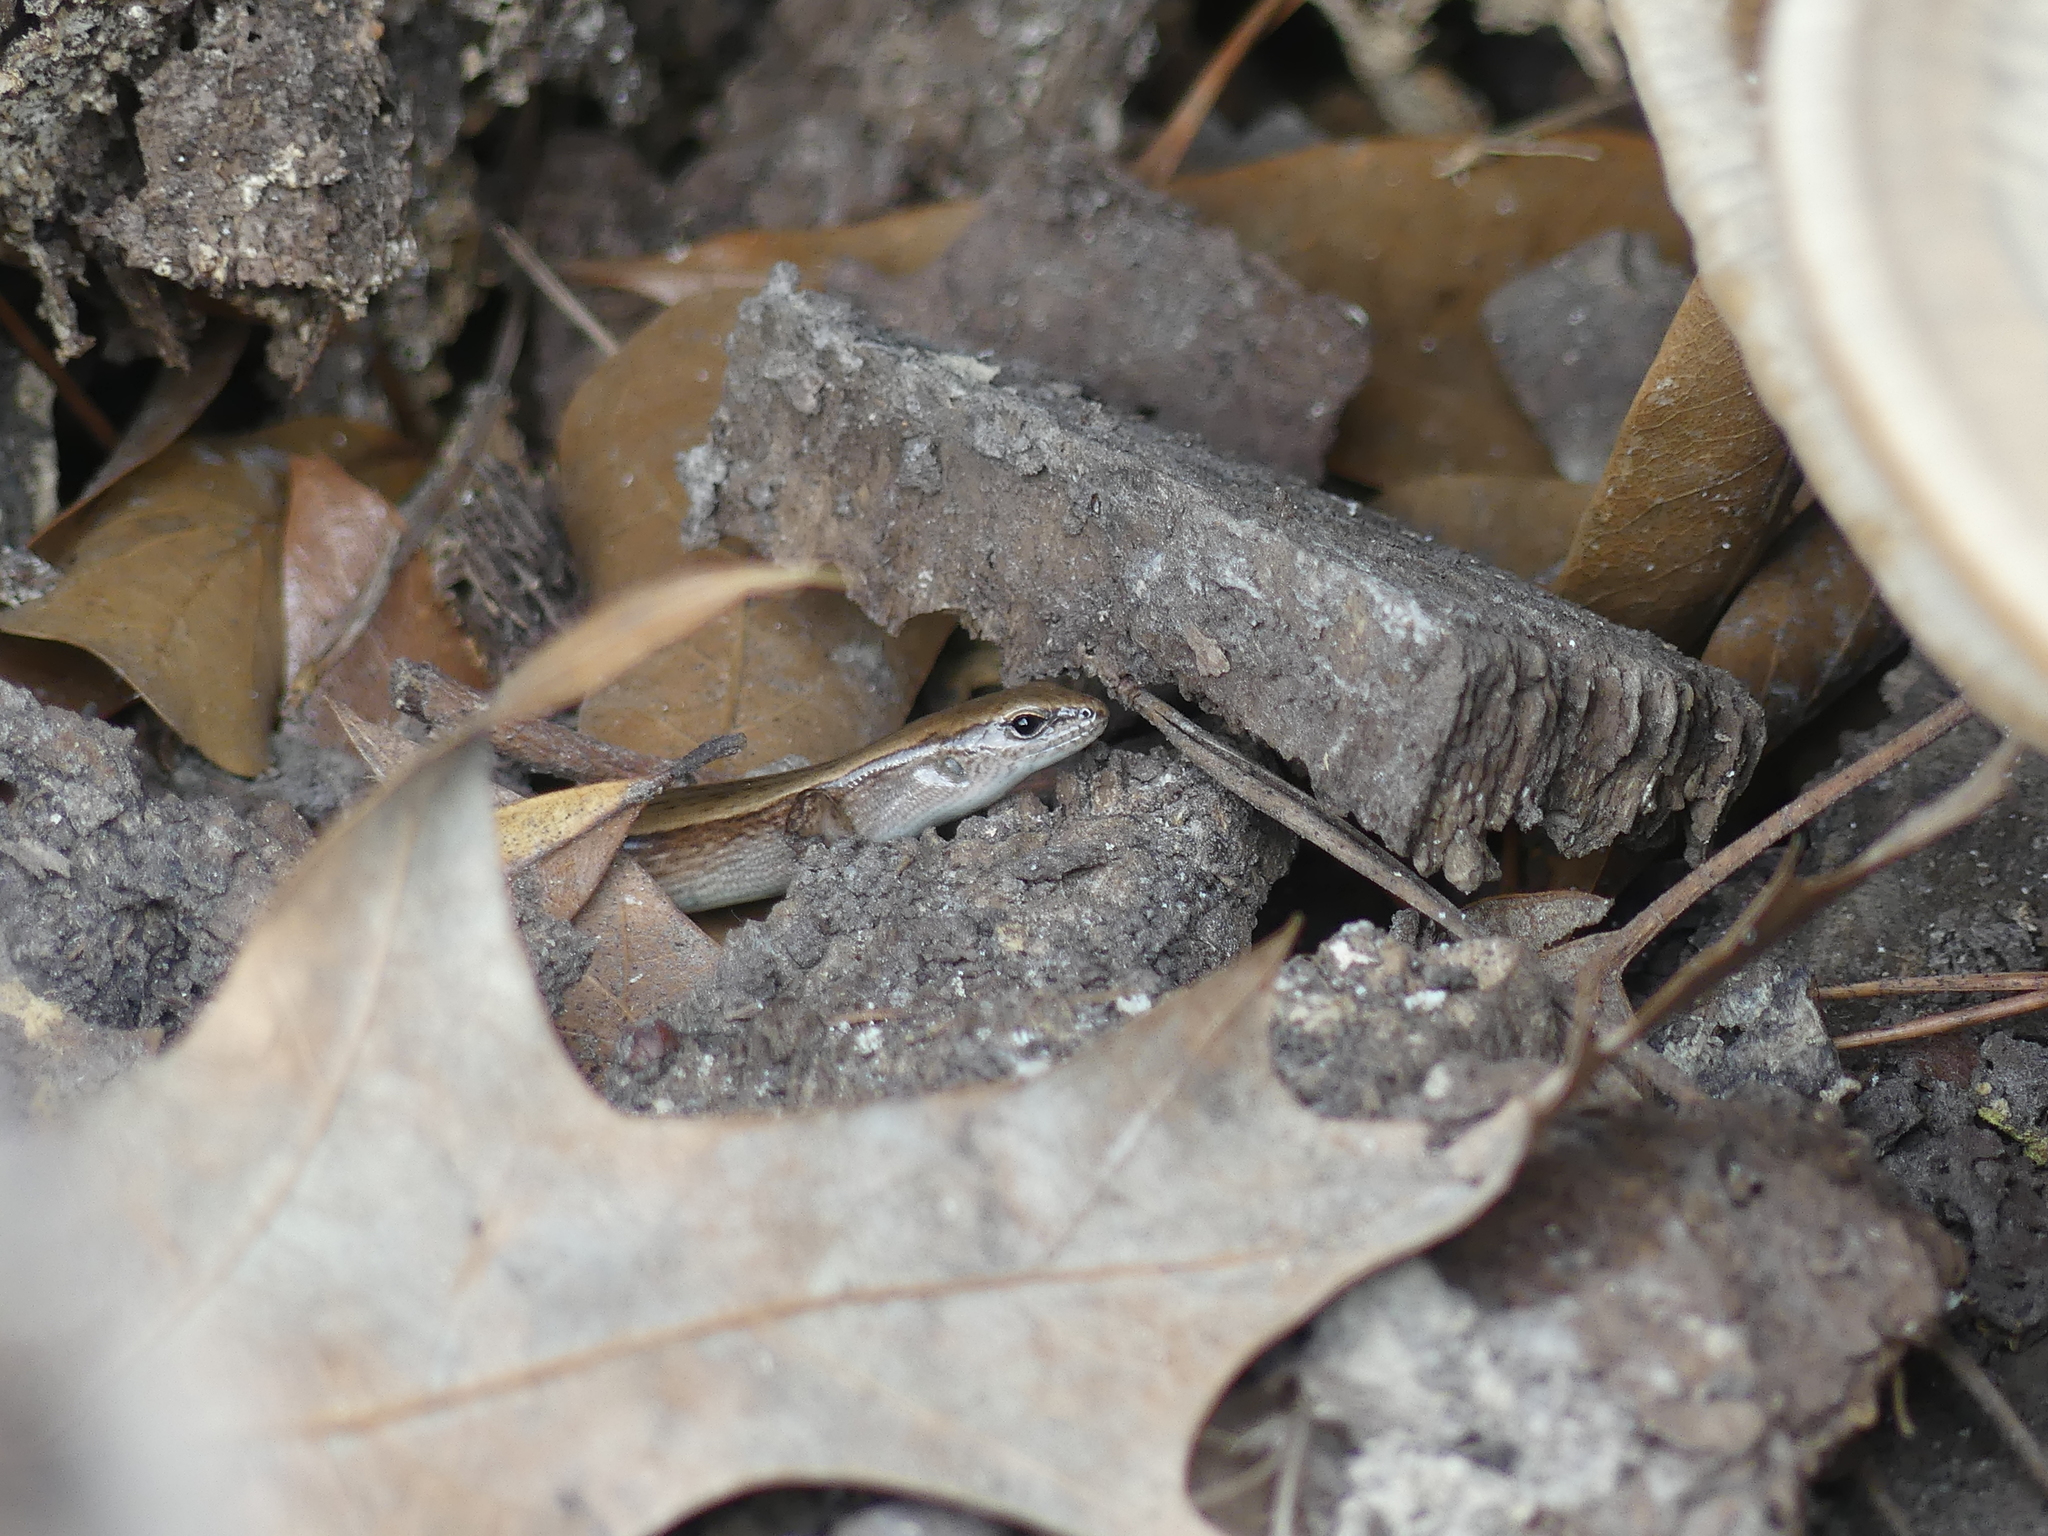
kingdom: Animalia
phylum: Chordata
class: Squamata
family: Scincidae
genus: Scincella
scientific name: Scincella lateralis
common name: Ground skink
